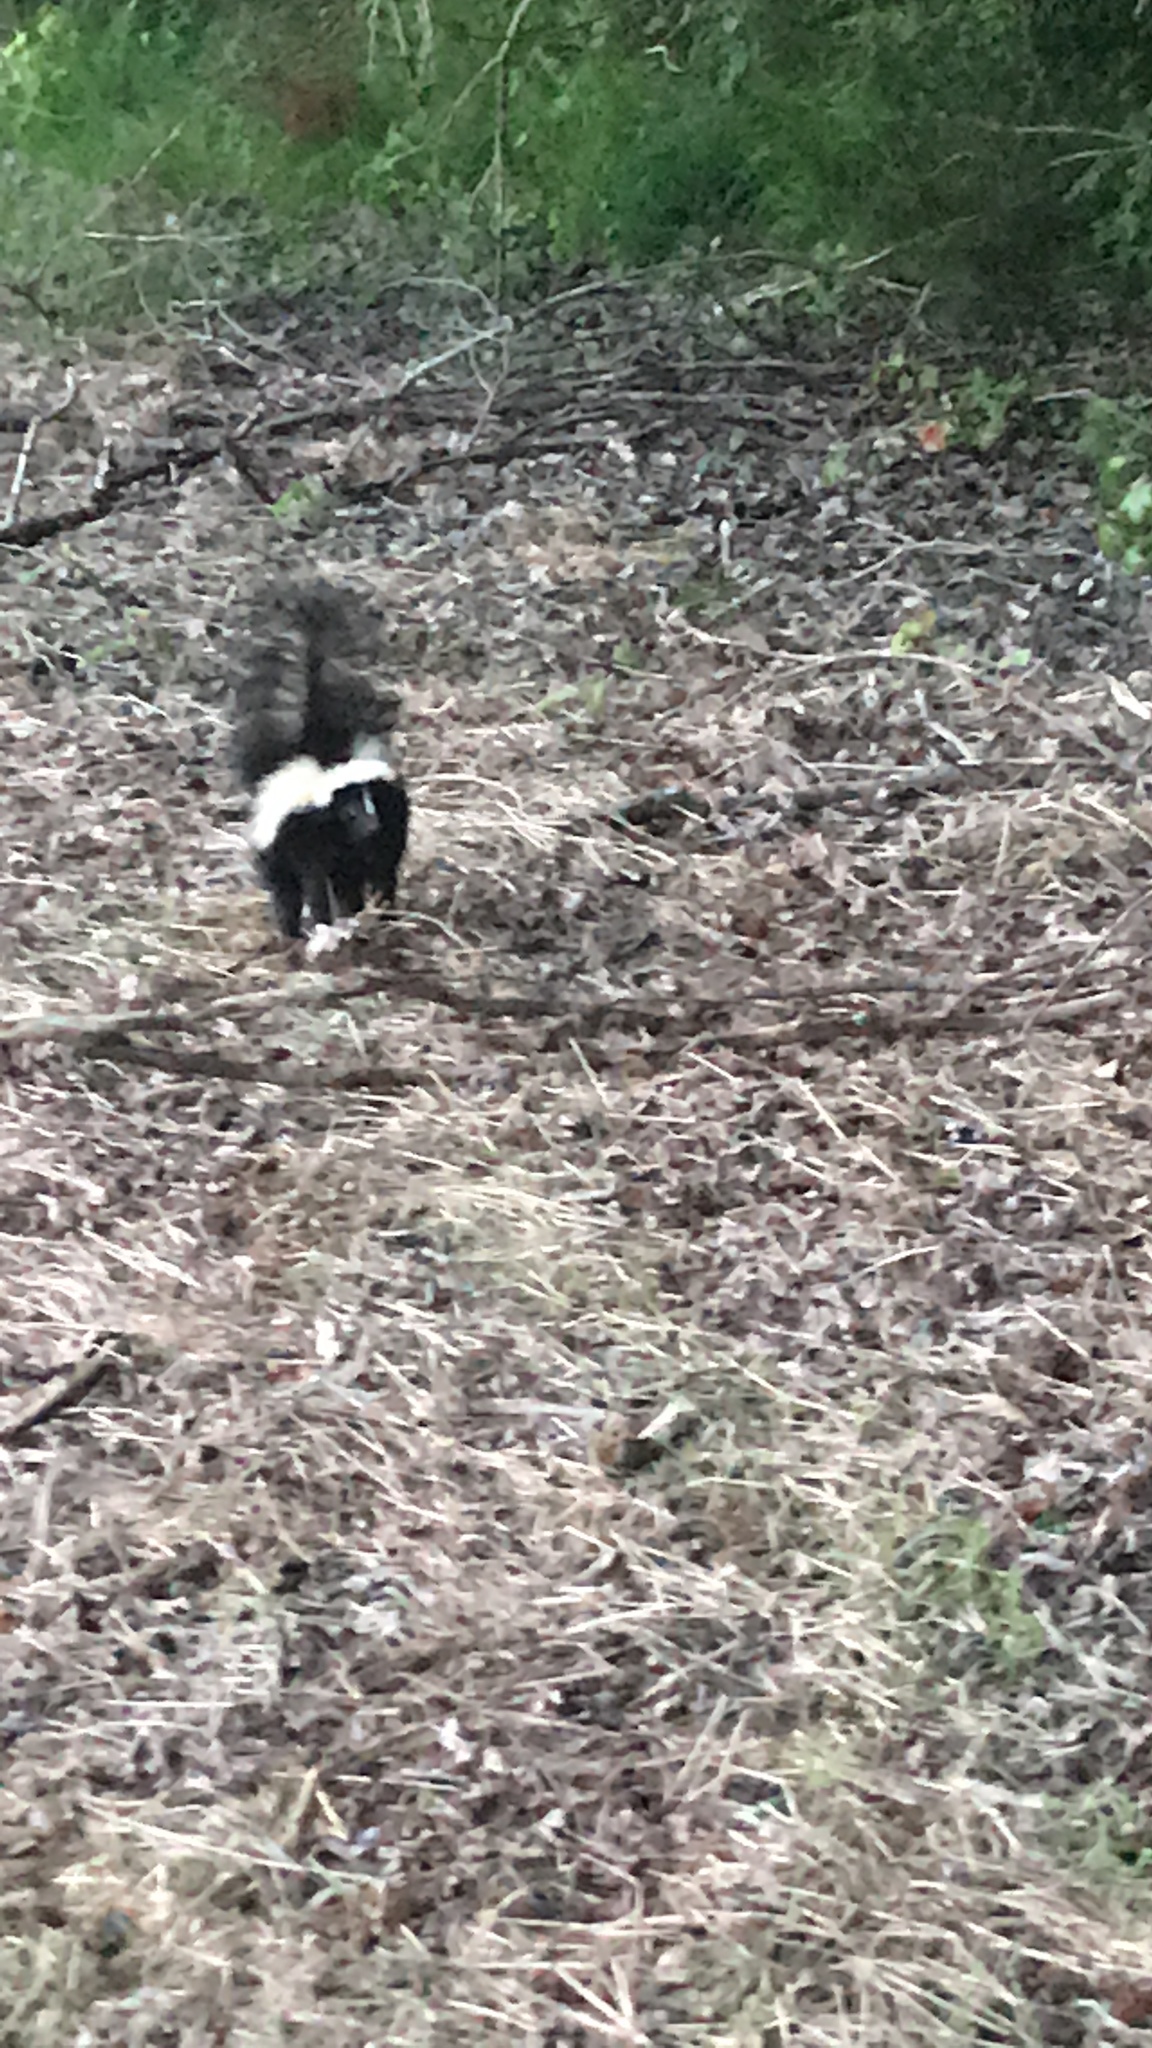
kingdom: Animalia
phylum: Chordata
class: Mammalia
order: Carnivora
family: Mephitidae
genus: Mephitis
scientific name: Mephitis mephitis
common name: Striped skunk
